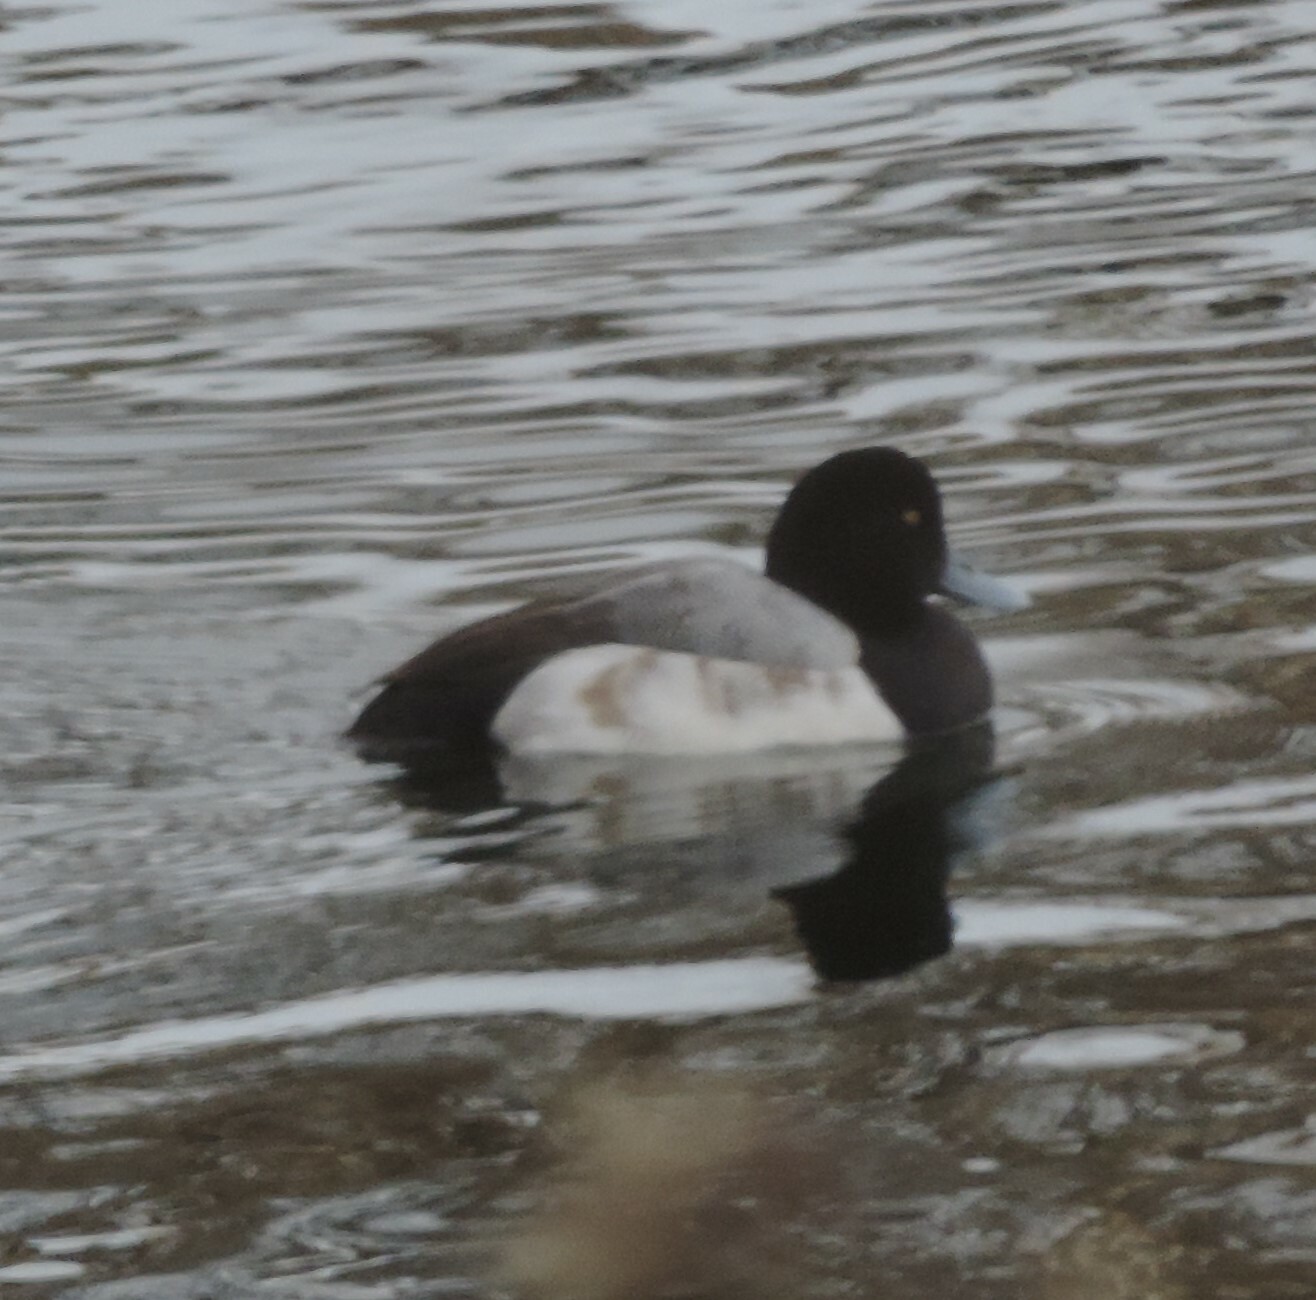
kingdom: Animalia
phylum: Chordata
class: Aves
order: Anseriformes
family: Anatidae
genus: Aythya
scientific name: Aythya marila
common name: Greater scaup
